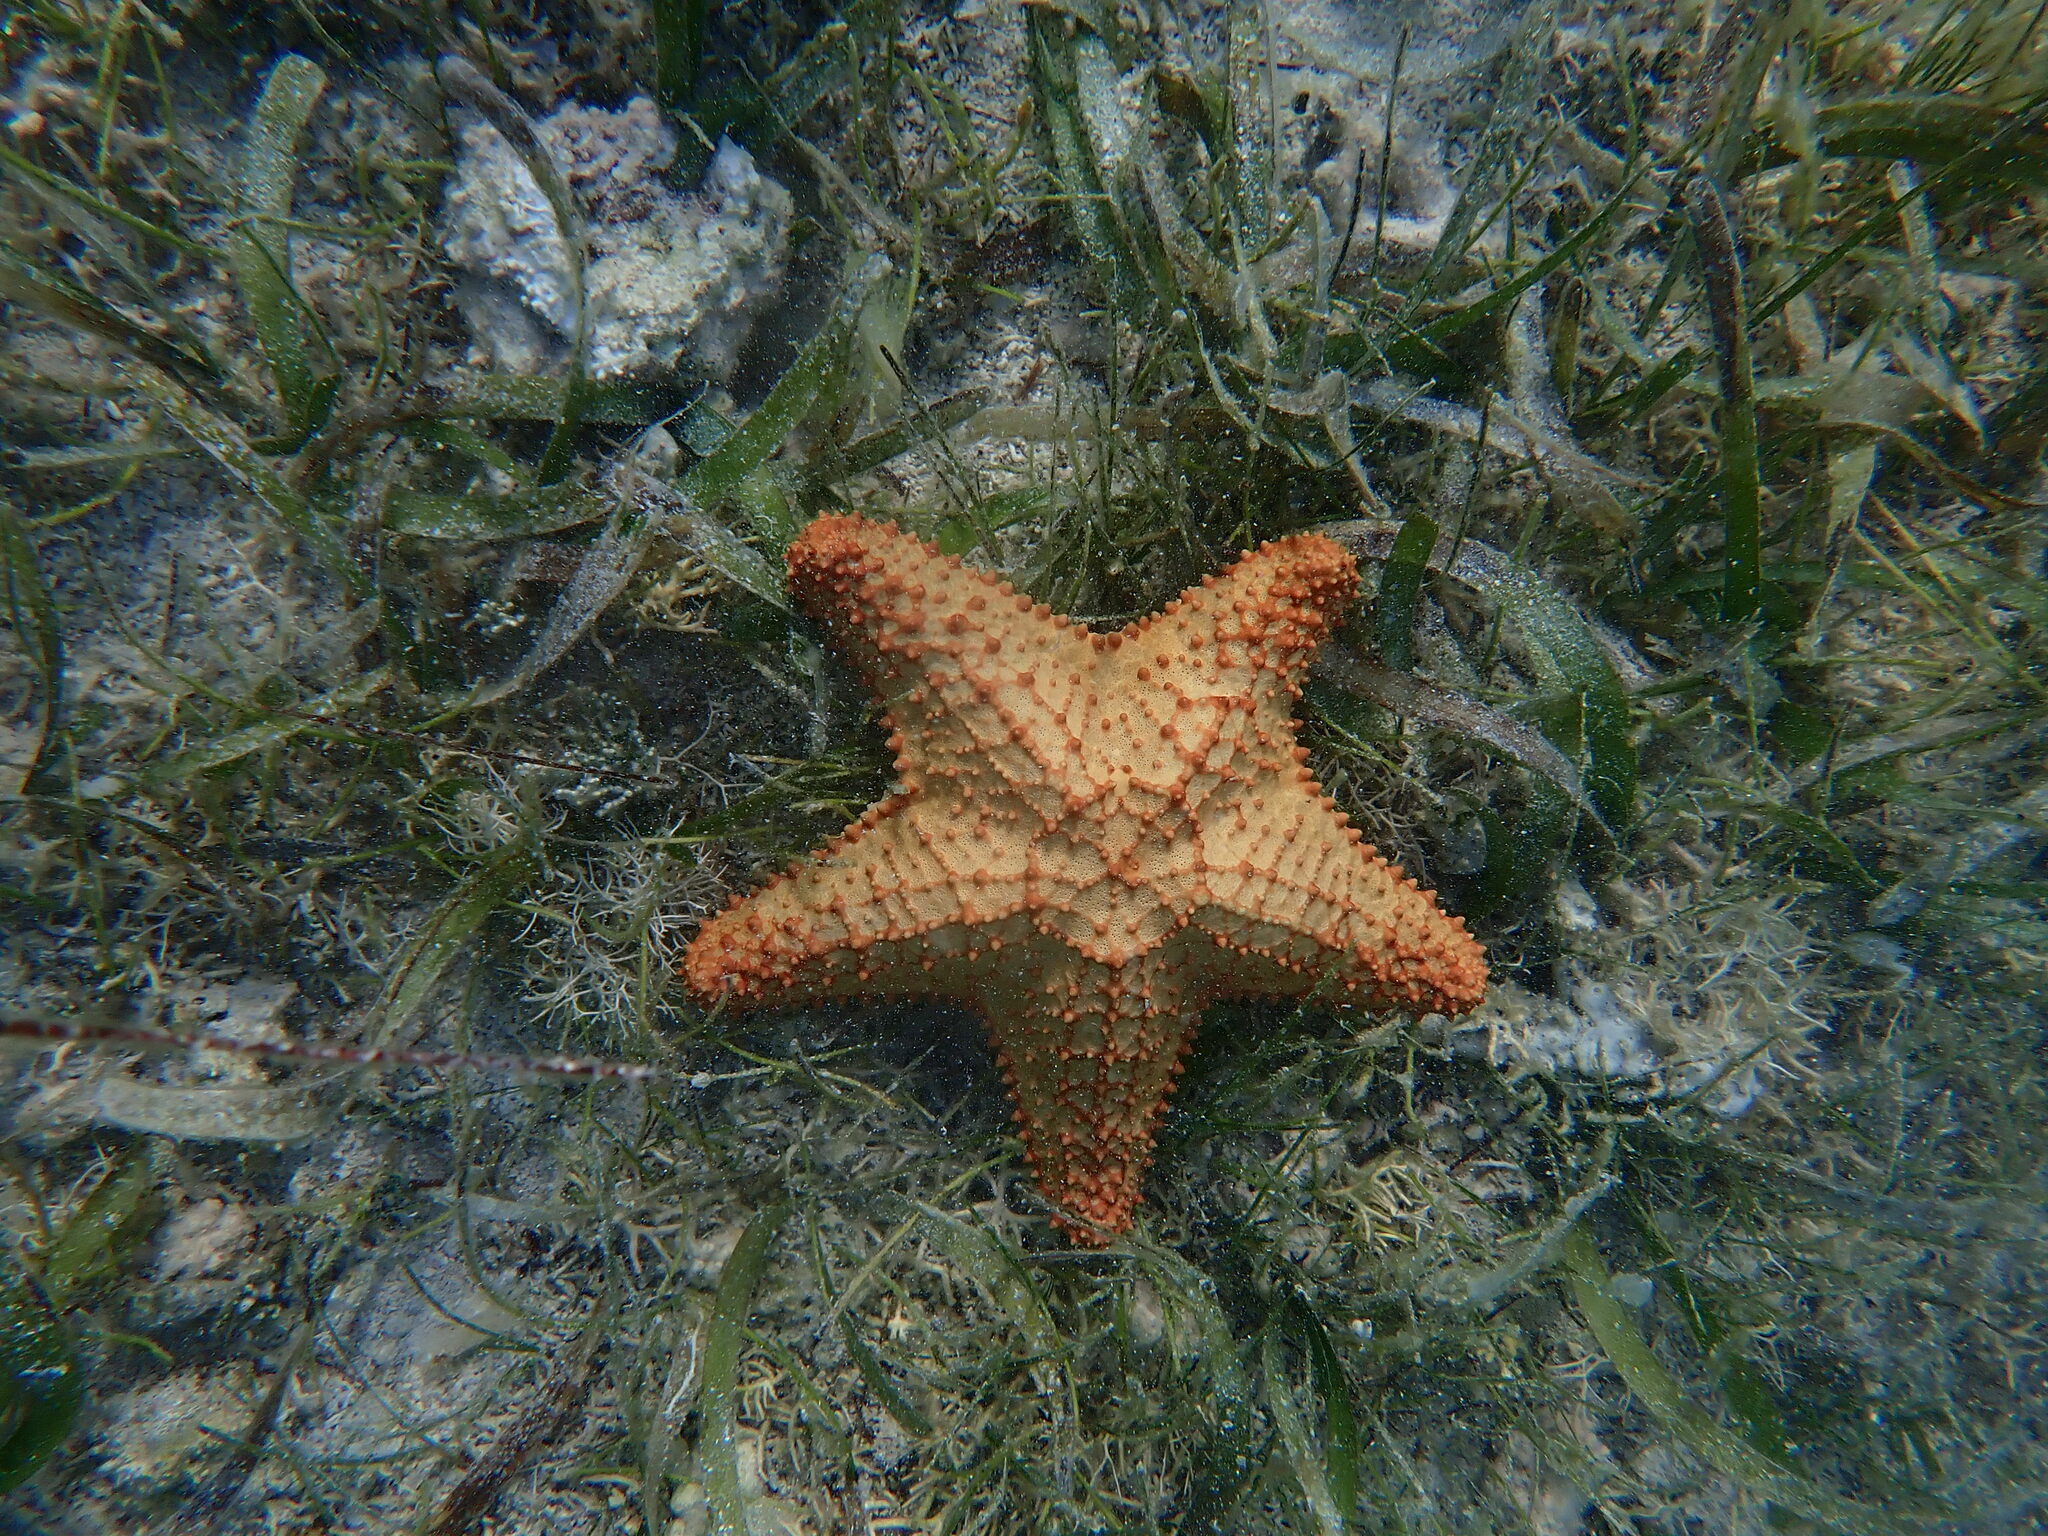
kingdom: Animalia
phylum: Echinodermata
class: Asteroidea
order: Valvatida
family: Oreasteridae
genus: Oreaster
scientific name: Oreaster reticulatus
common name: Cushion sea star
